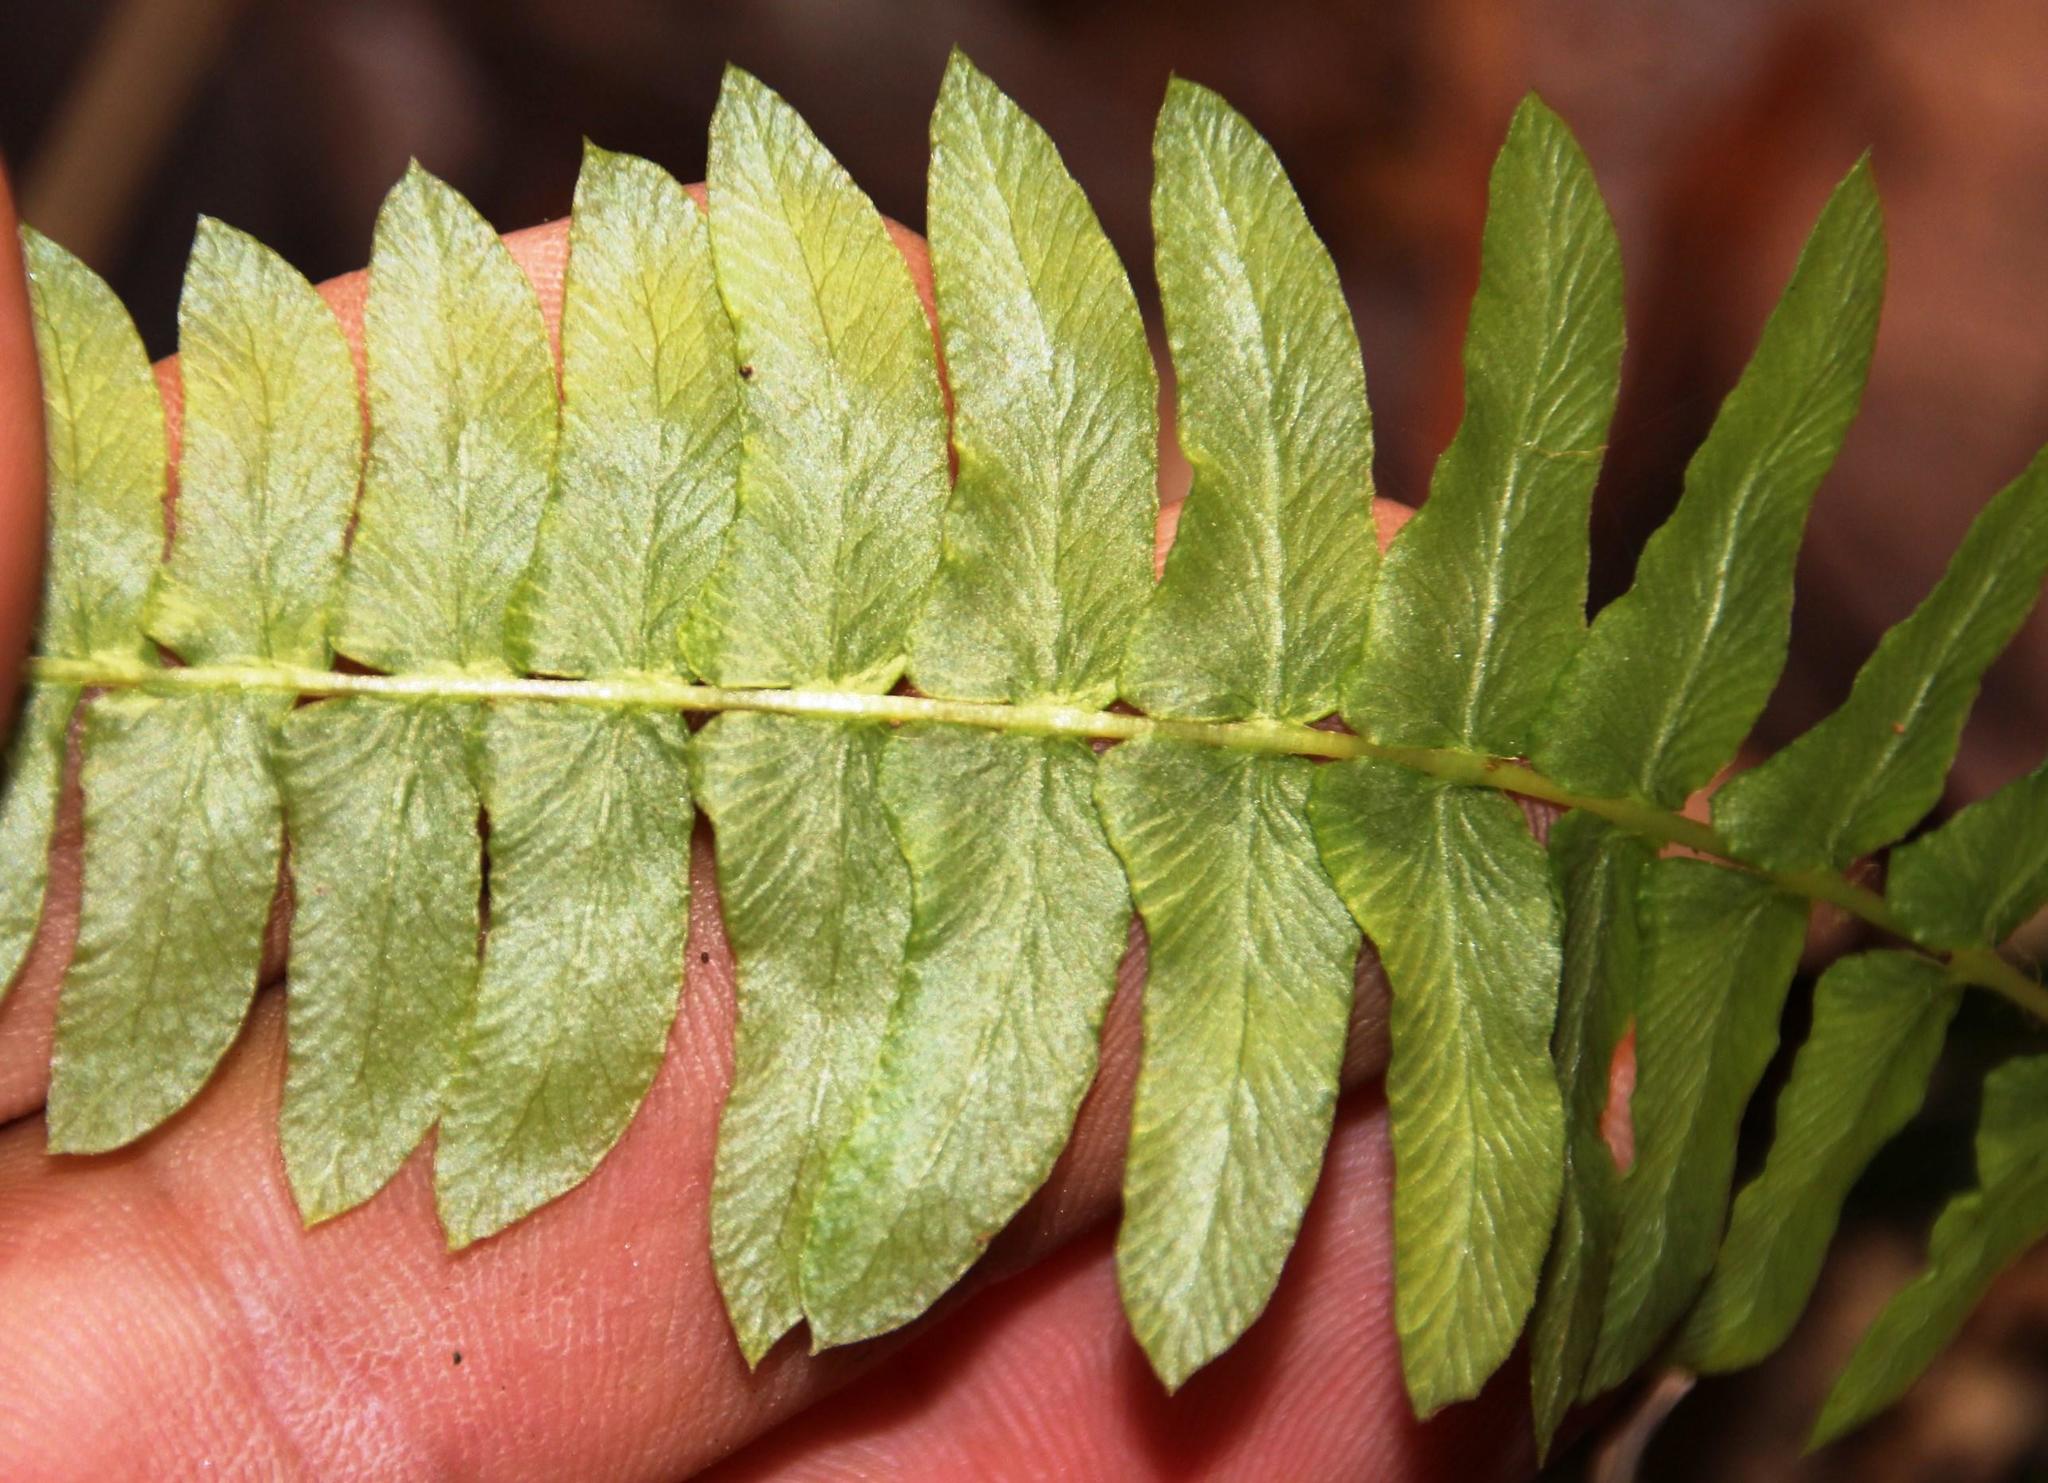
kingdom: Plantae
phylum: Tracheophyta
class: Polypodiopsida
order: Polypodiales
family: Blechnaceae
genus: Blechnum
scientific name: Blechnum hastatum
